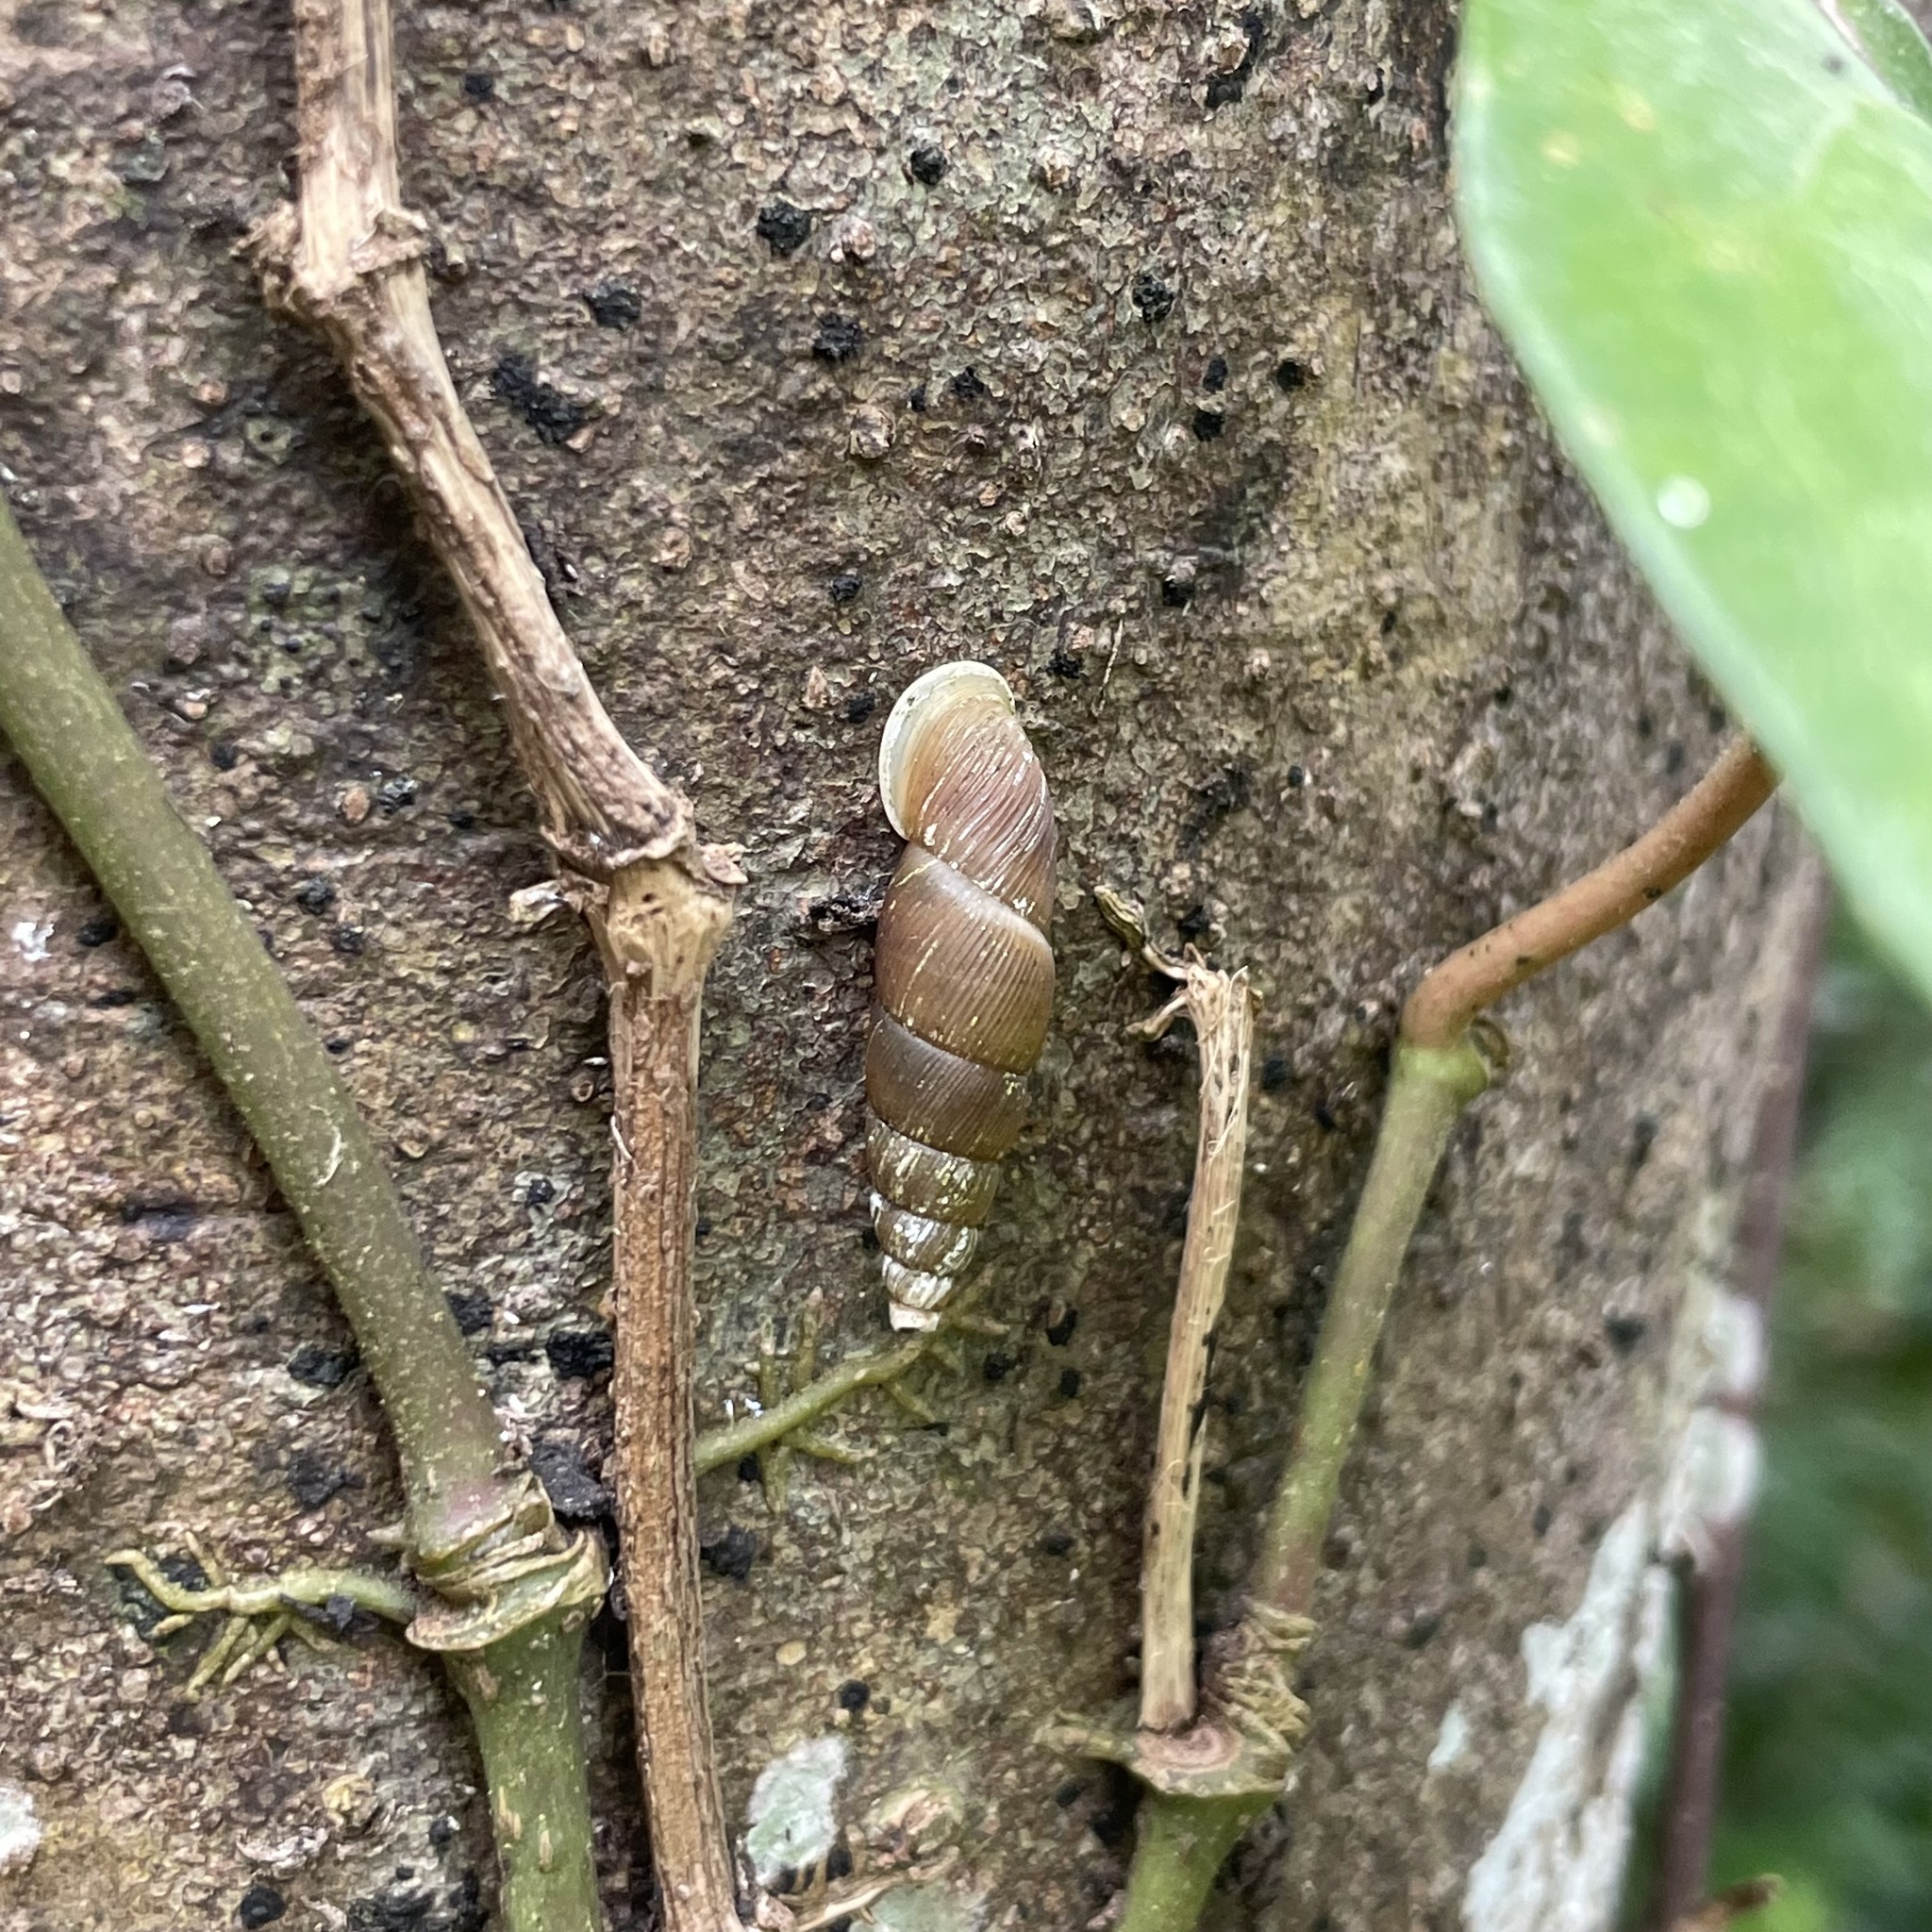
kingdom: Animalia
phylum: Mollusca
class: Gastropoda
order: Stylommatophora
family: Clausiliidae
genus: Stereophaedusa
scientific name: Stereophaedusa valida
